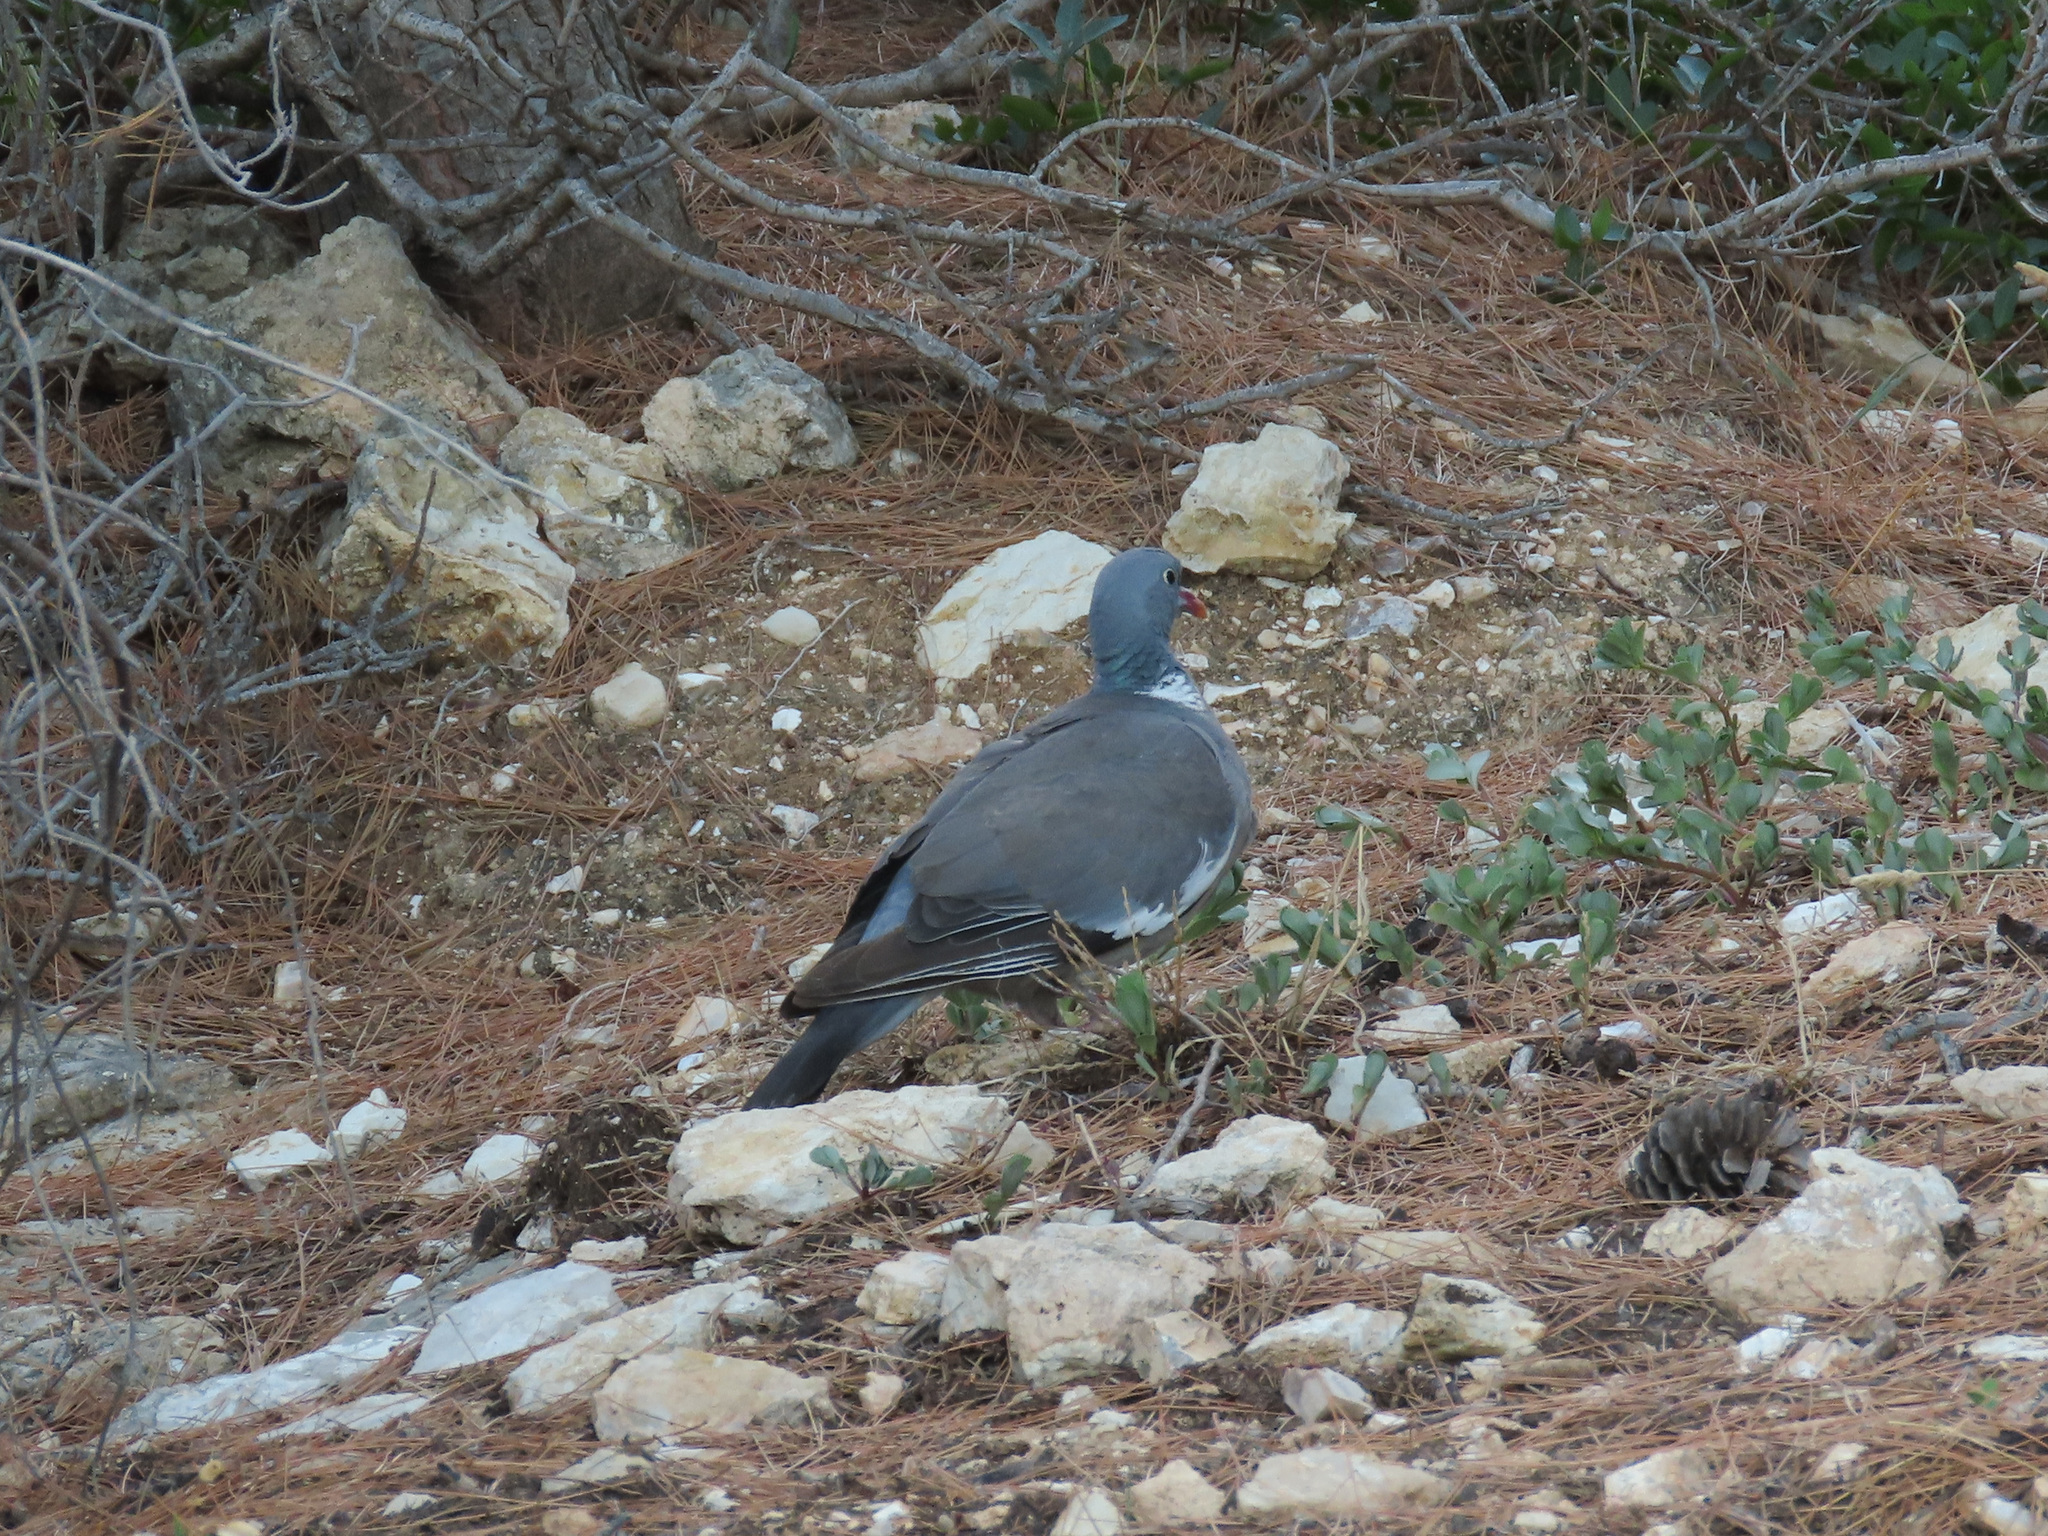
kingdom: Animalia
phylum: Chordata
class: Aves
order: Columbiformes
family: Columbidae
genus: Columba
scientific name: Columba palumbus
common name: Common wood pigeon
